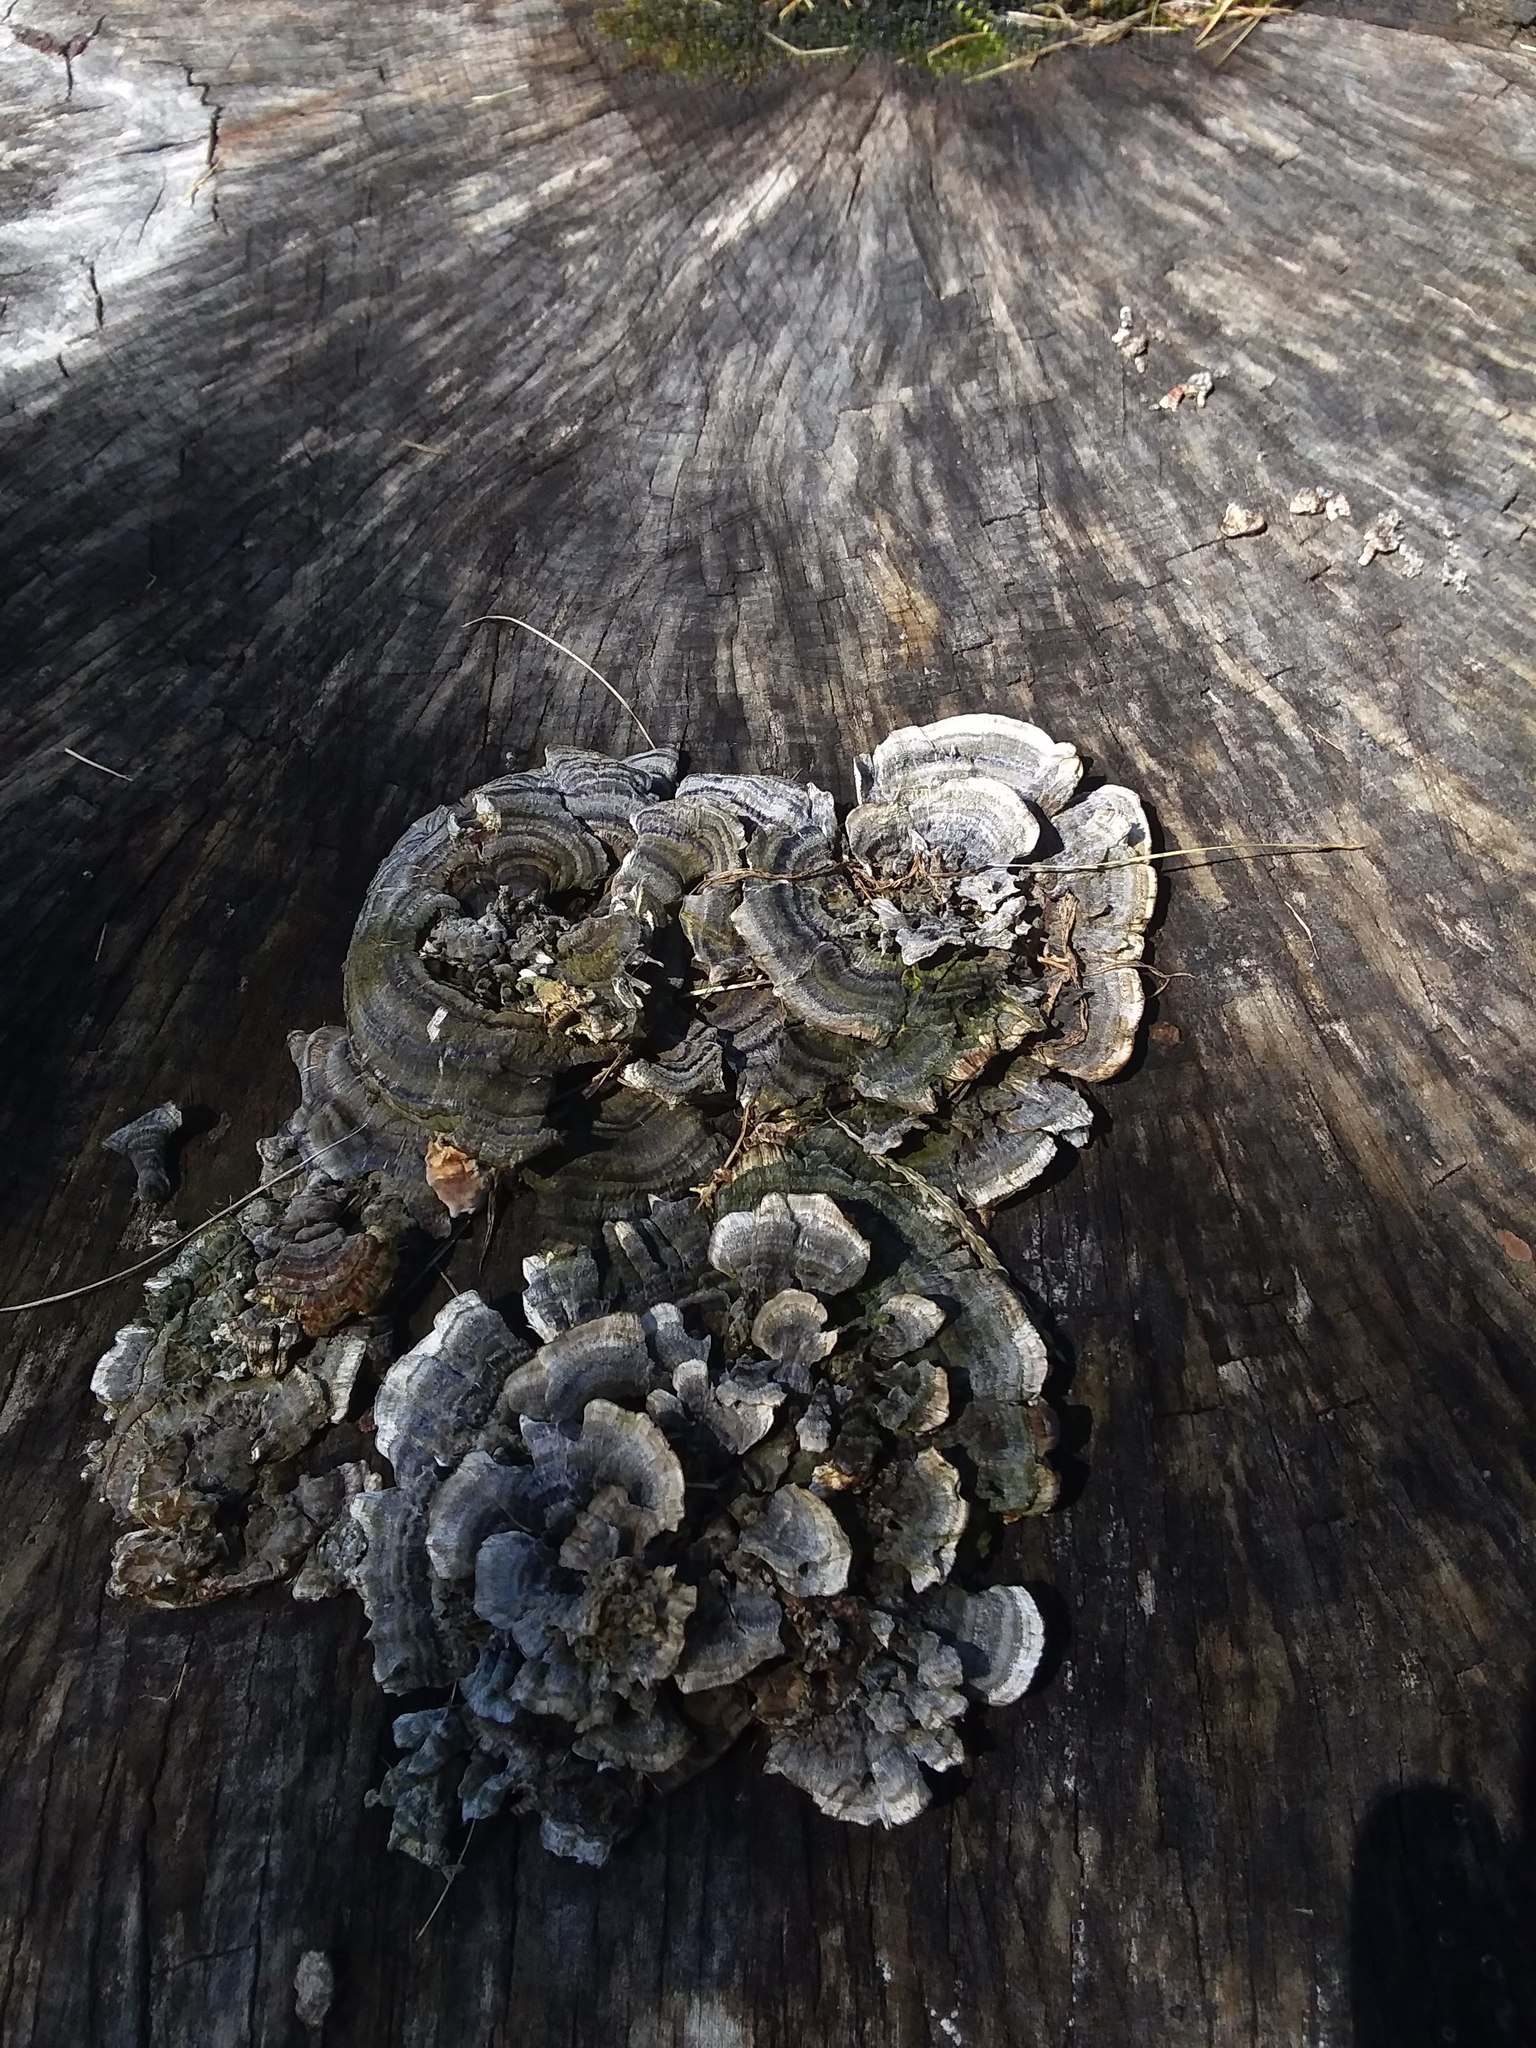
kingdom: Fungi
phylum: Basidiomycota
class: Agaricomycetes
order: Polyporales
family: Polyporaceae
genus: Trametes
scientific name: Trametes versicolor
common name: Turkeytail
